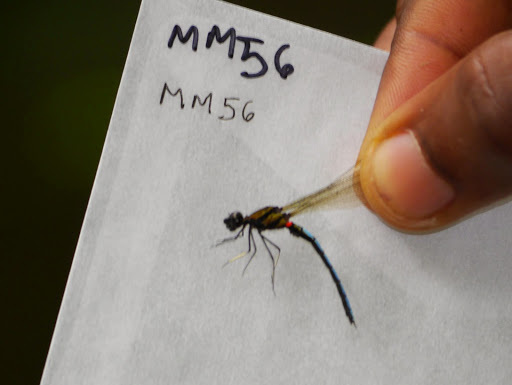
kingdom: Animalia
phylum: Arthropoda
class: Insecta
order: Odonata
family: Chlorocyphidae
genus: Chlorocypha
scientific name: Chlorocypha aphrodite
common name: Blue jewel
